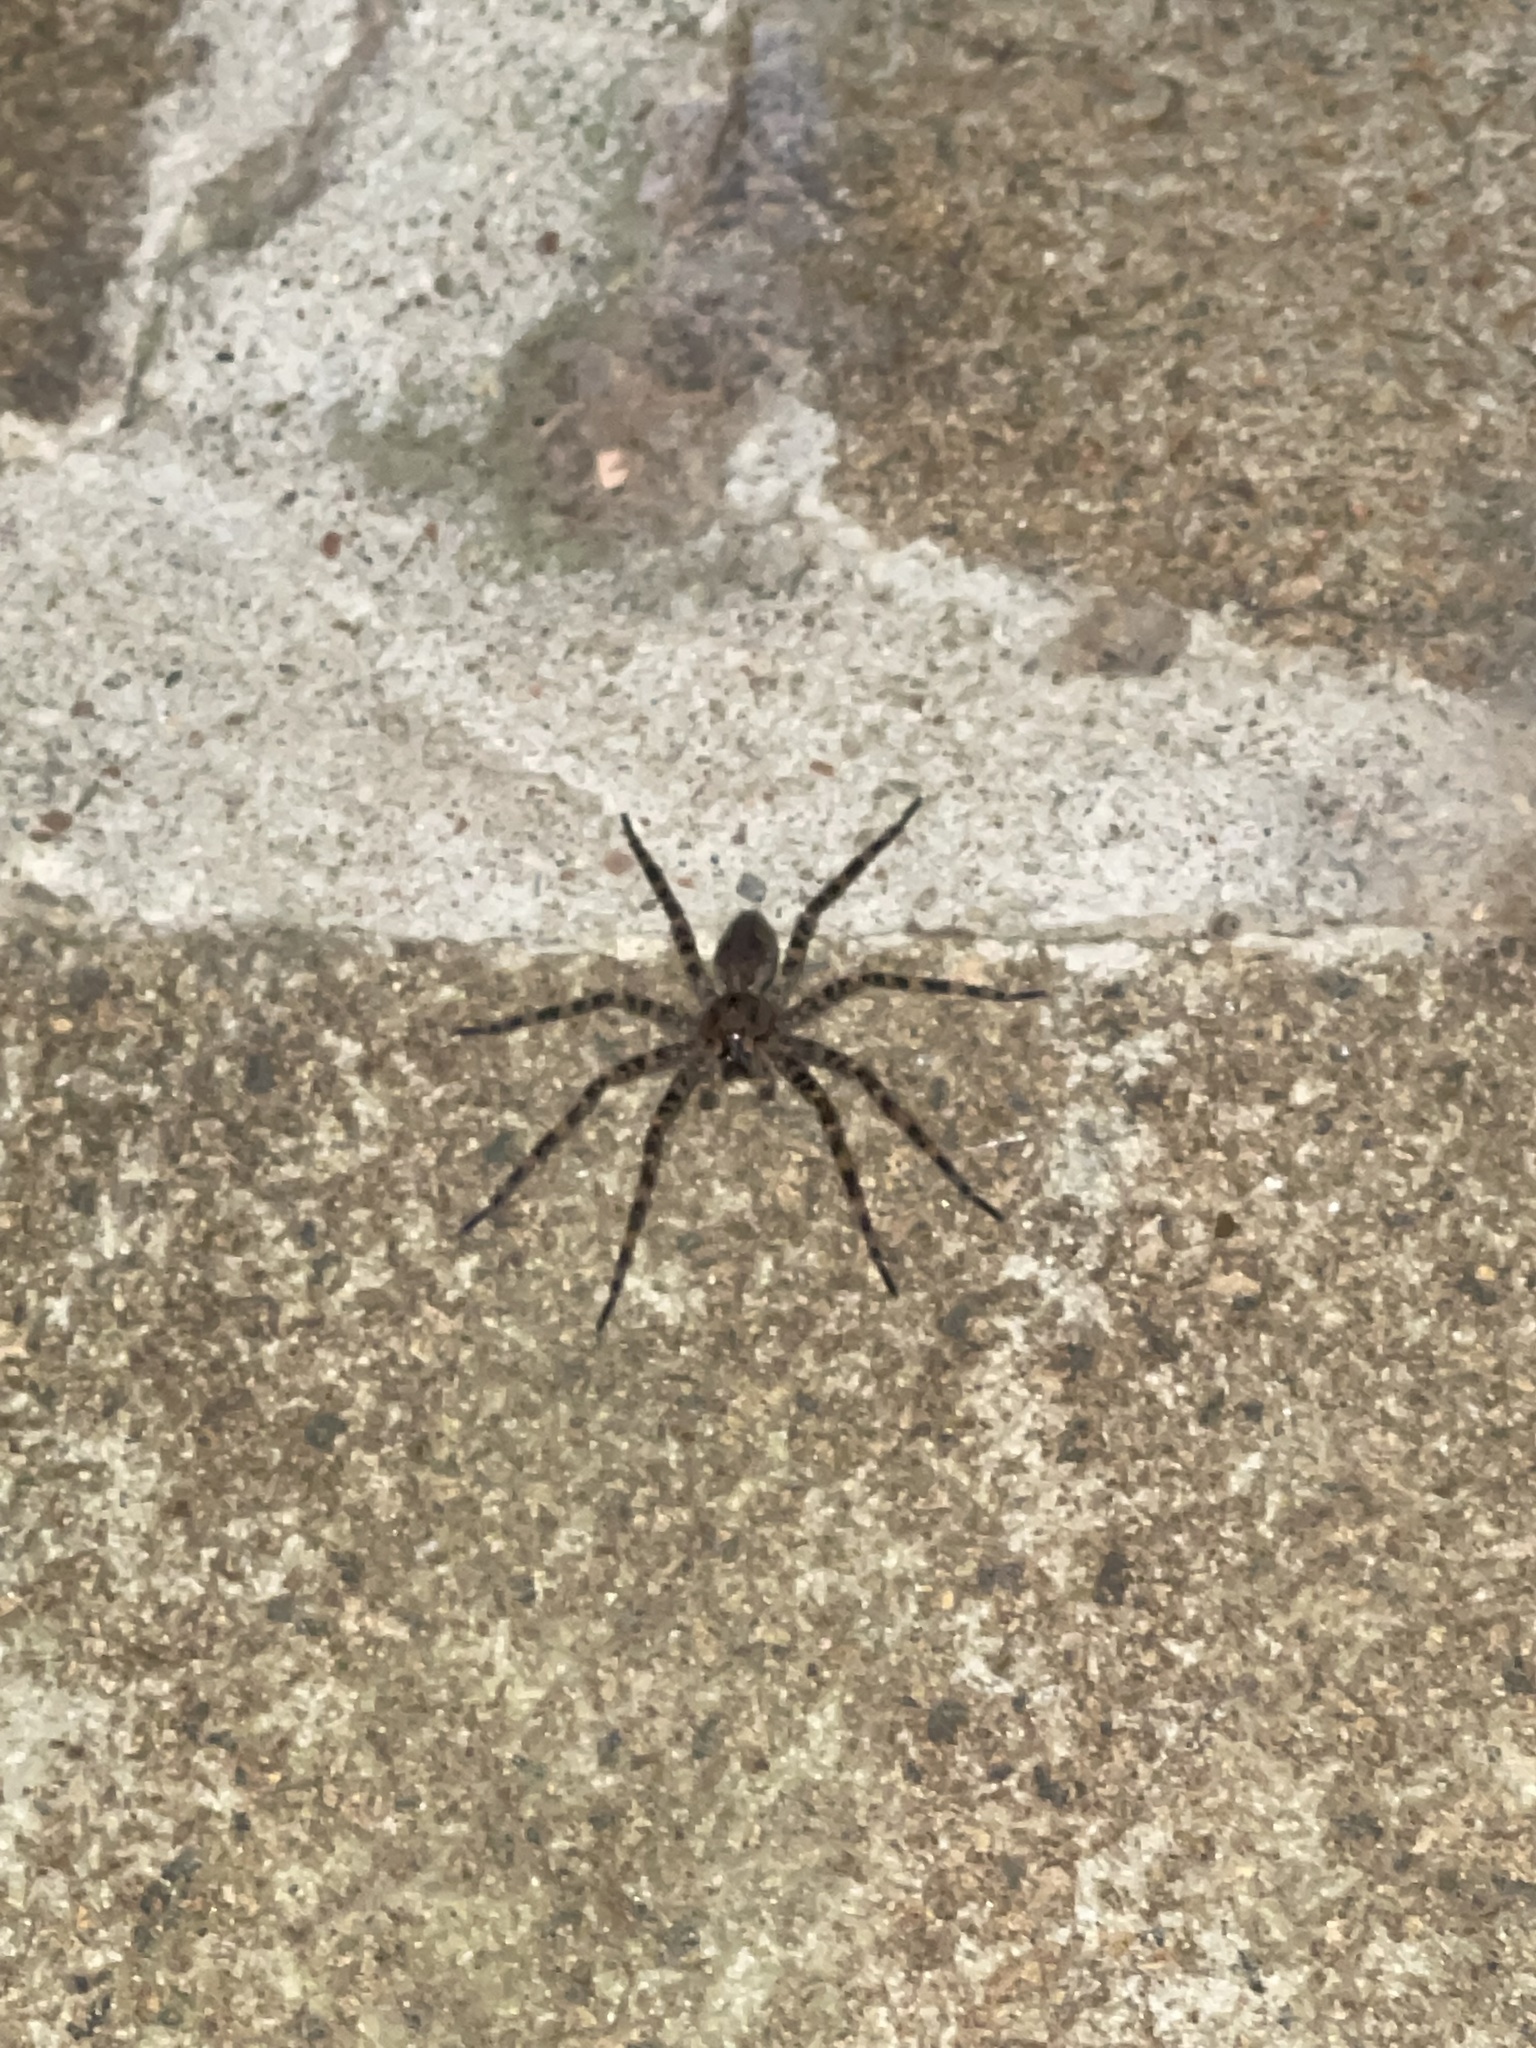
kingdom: Animalia
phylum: Arthropoda
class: Arachnida
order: Araneae
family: Pisauridae
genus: Dolomedes
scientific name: Dolomedes tenebrosus
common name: Dark fishing spider
